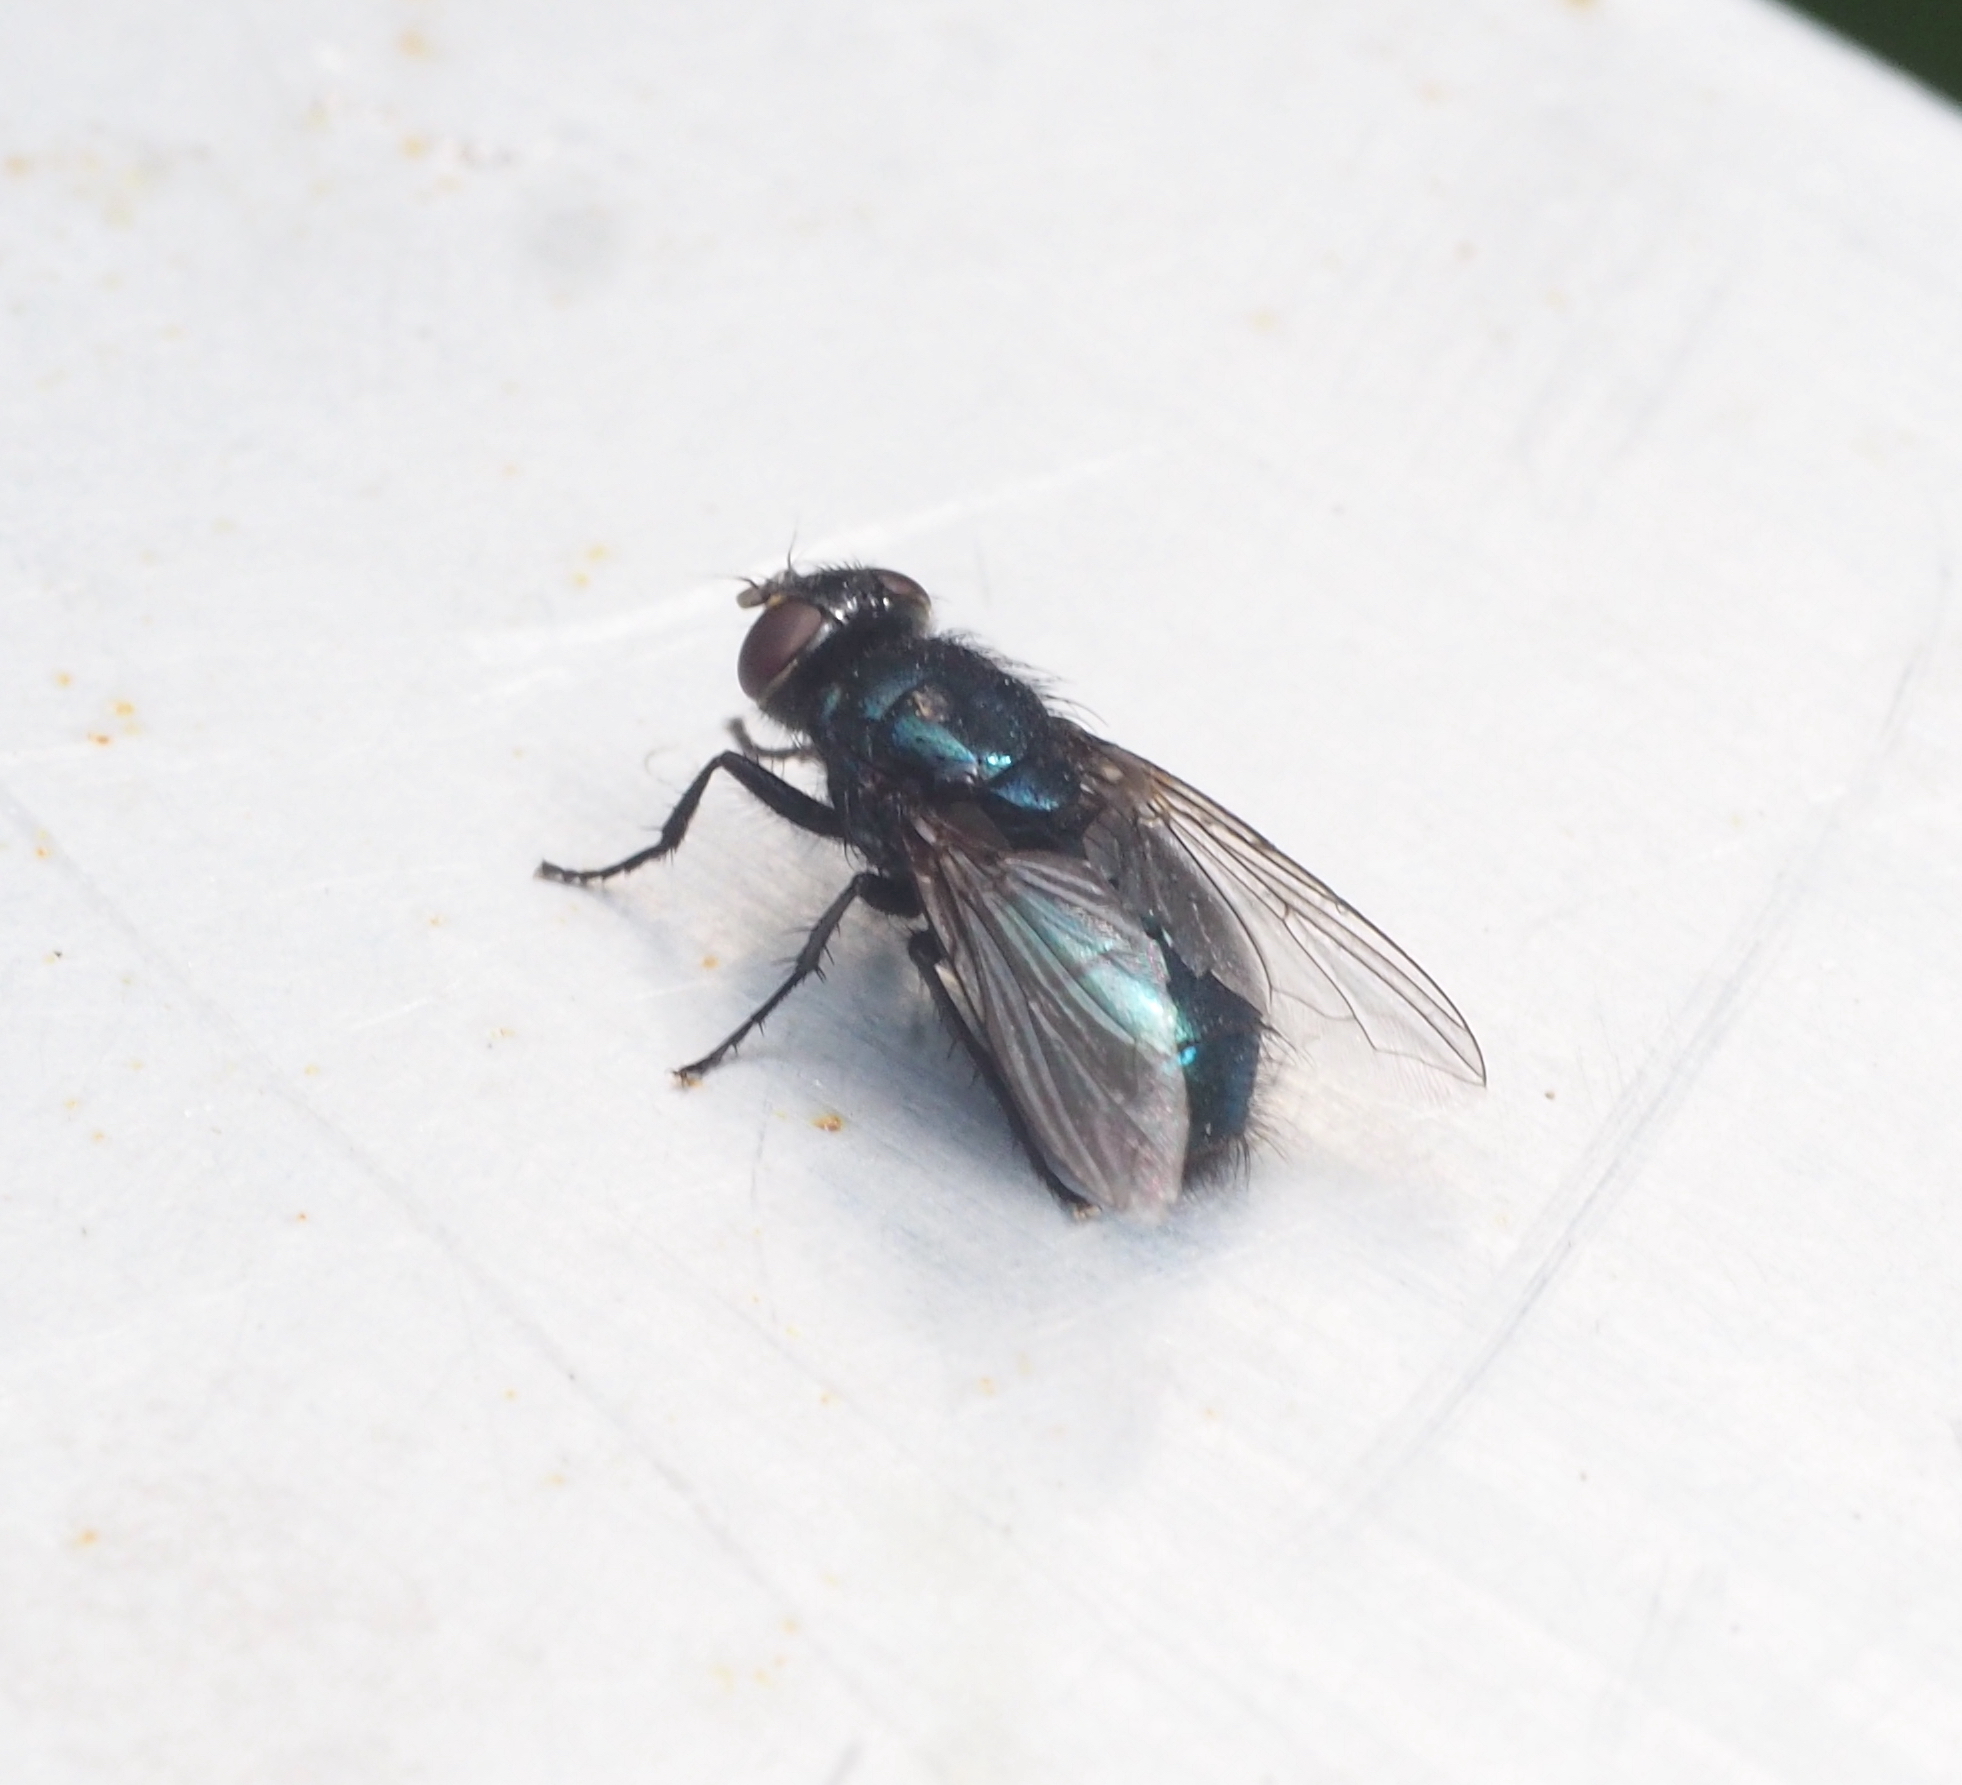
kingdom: Animalia
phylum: Arthropoda
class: Insecta
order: Diptera
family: Calliphoridae
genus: Protophormia
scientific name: Protophormia terraenovae
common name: Blackbottle
